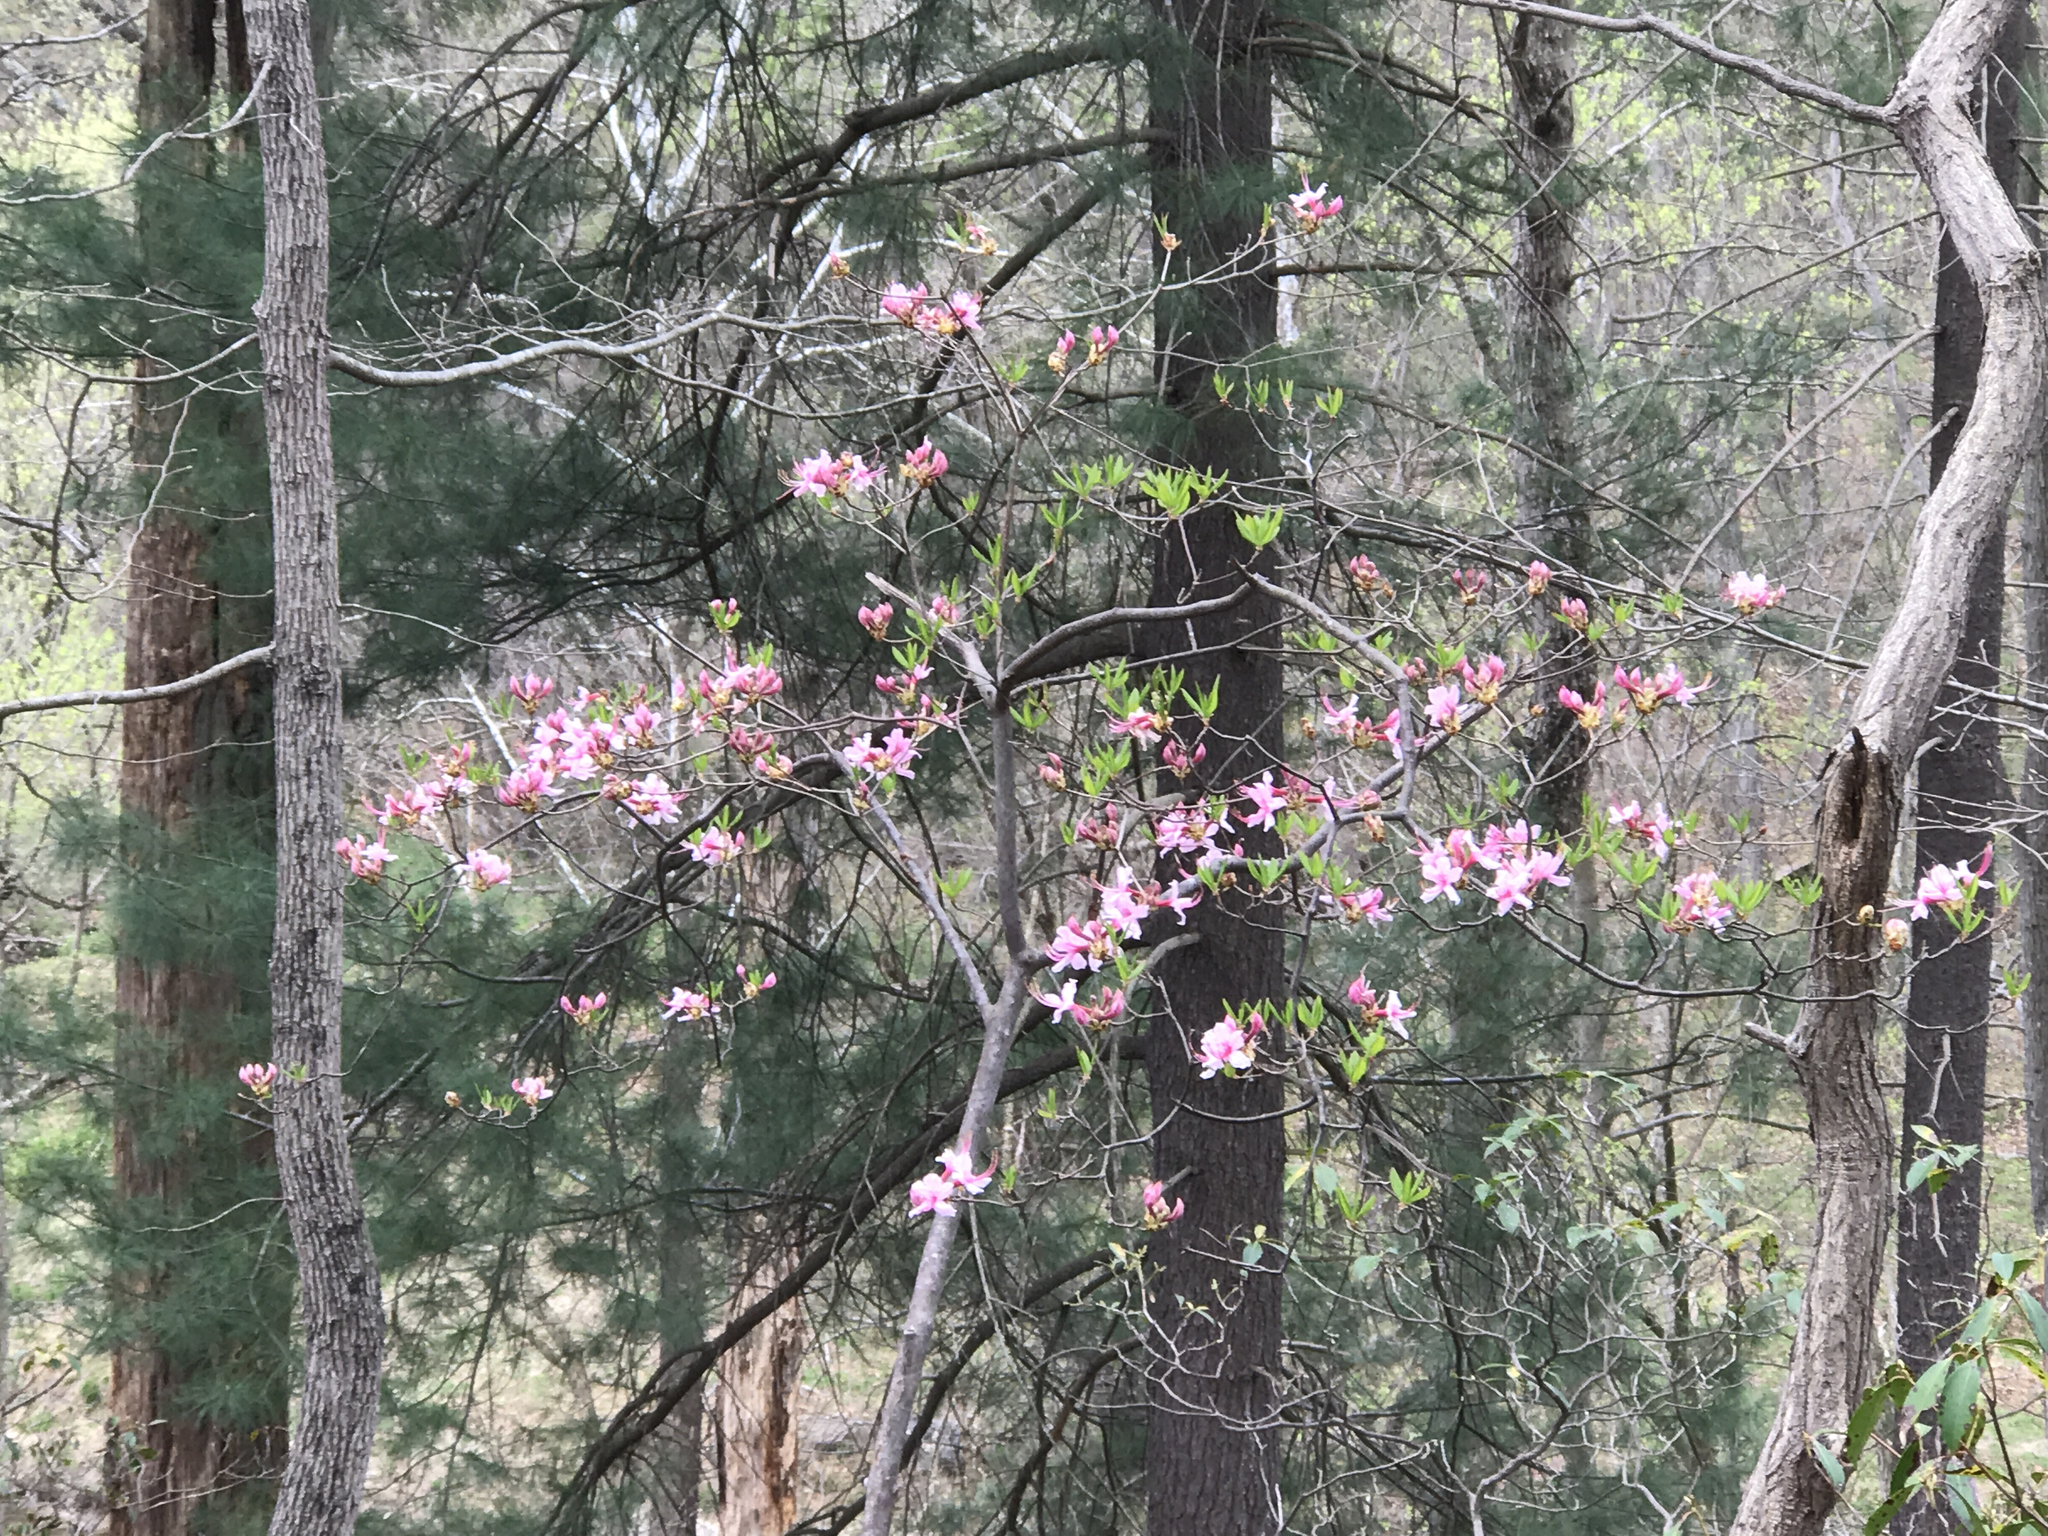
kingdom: Plantae
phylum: Tracheophyta
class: Magnoliopsida
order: Ericales
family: Ericaceae
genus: Rhododendron
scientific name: Rhododendron periclymenoides
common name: Election-pink
